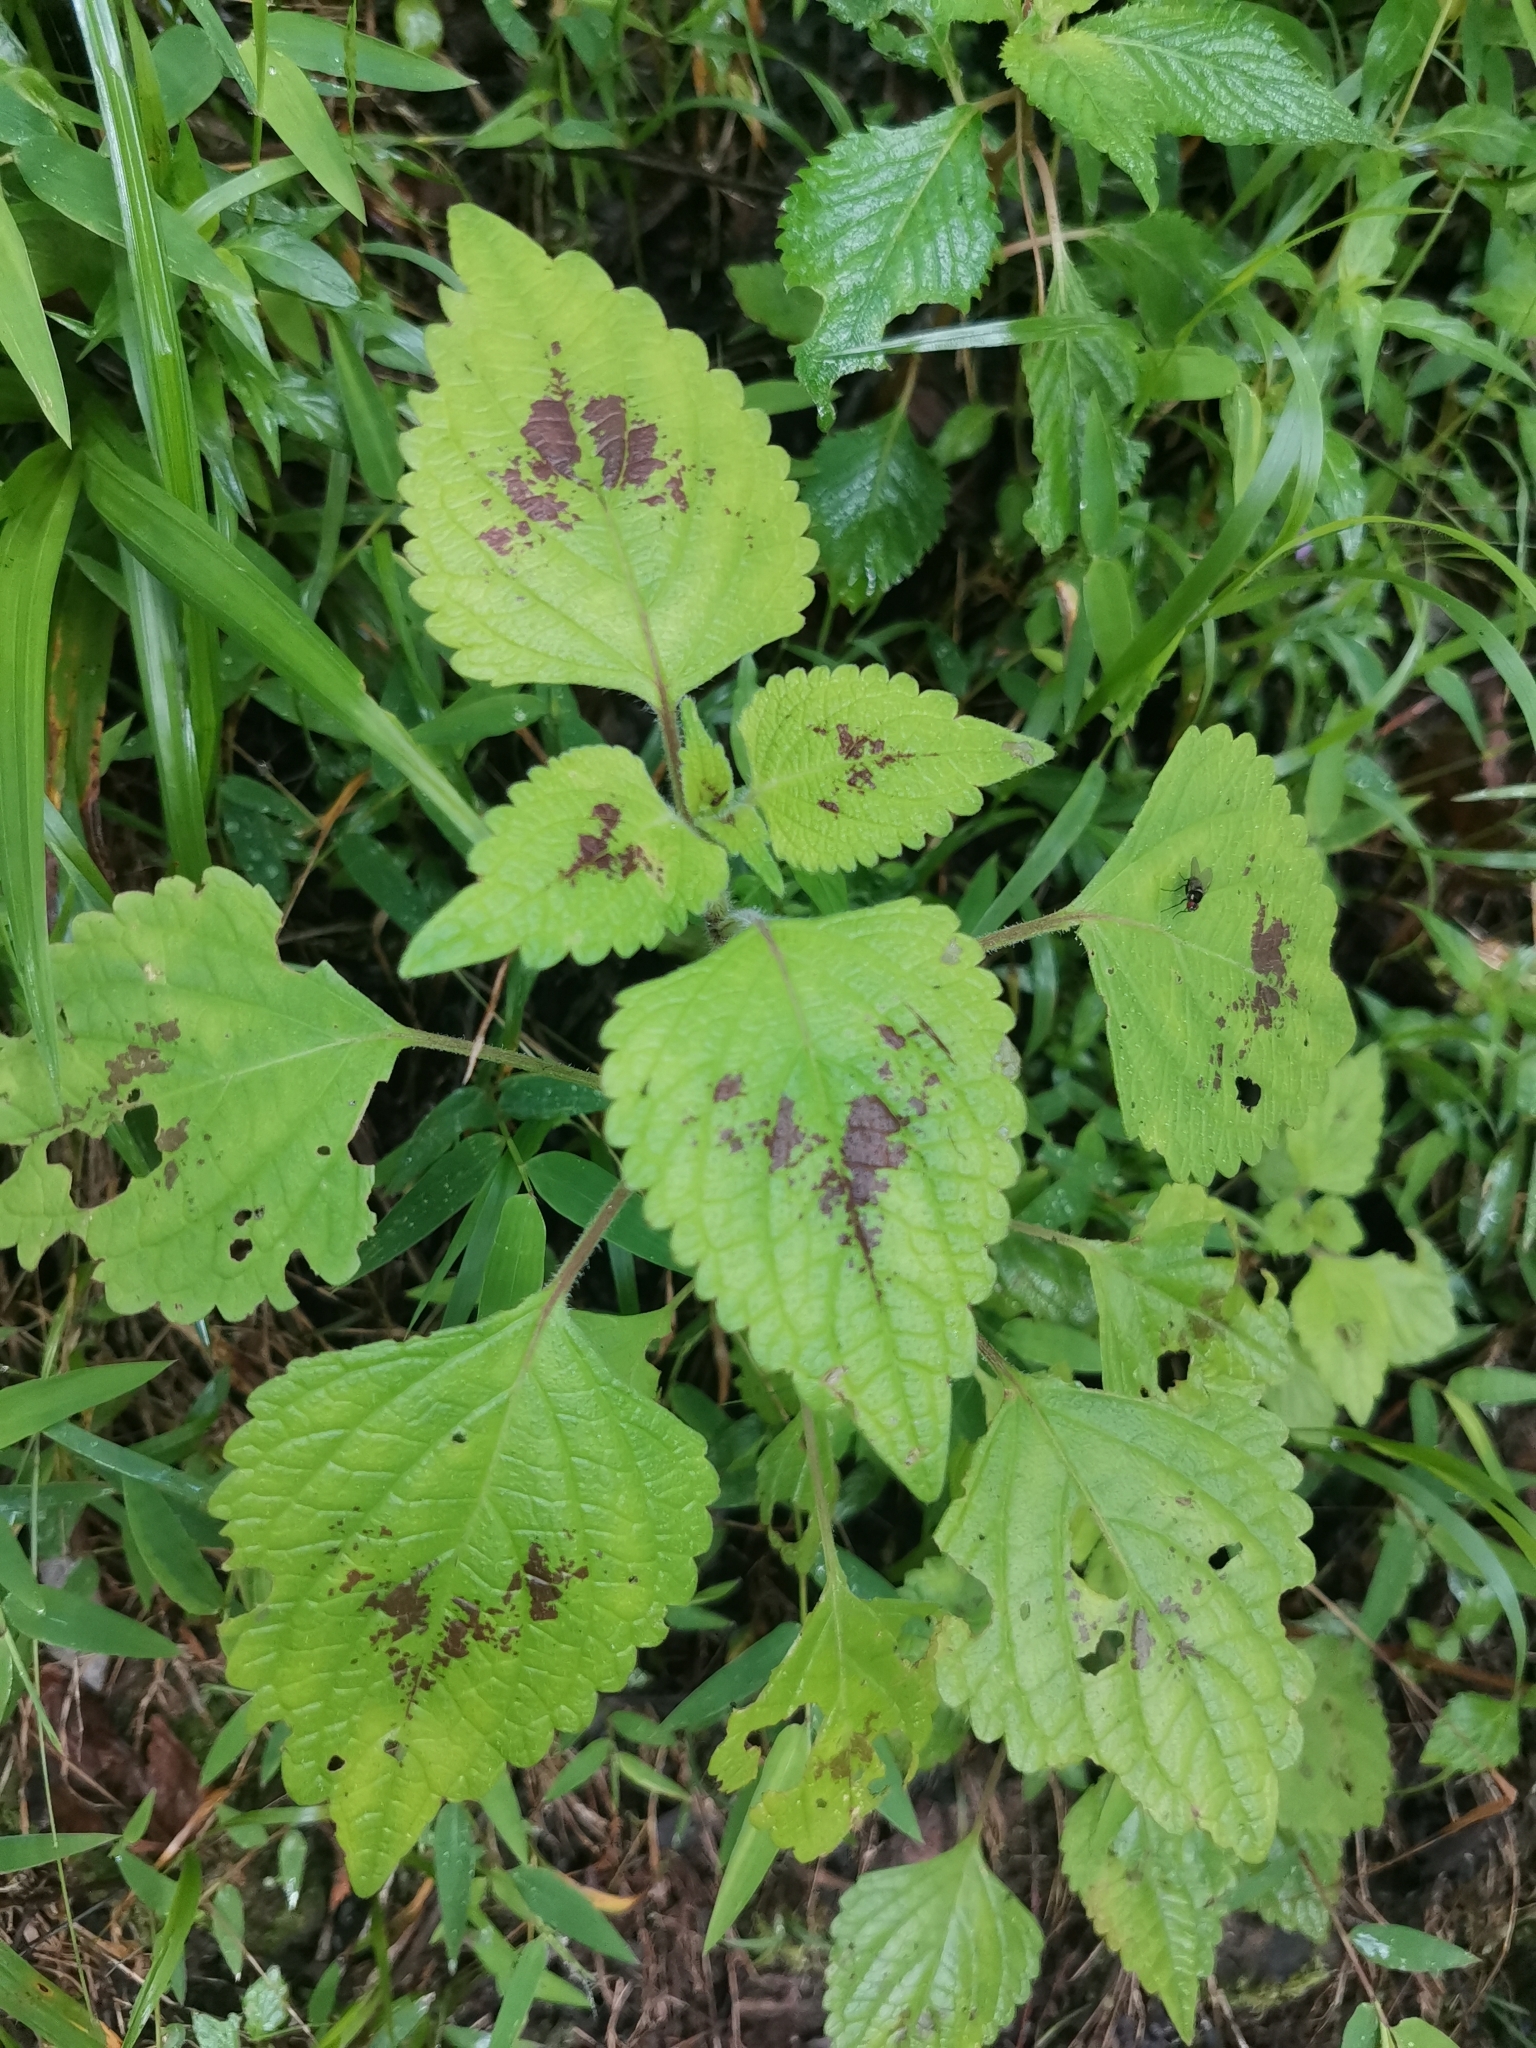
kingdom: Plantae
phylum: Tracheophyta
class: Magnoliopsida
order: Lamiales
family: Lamiaceae
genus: Coleus
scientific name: Coleus bojeri
